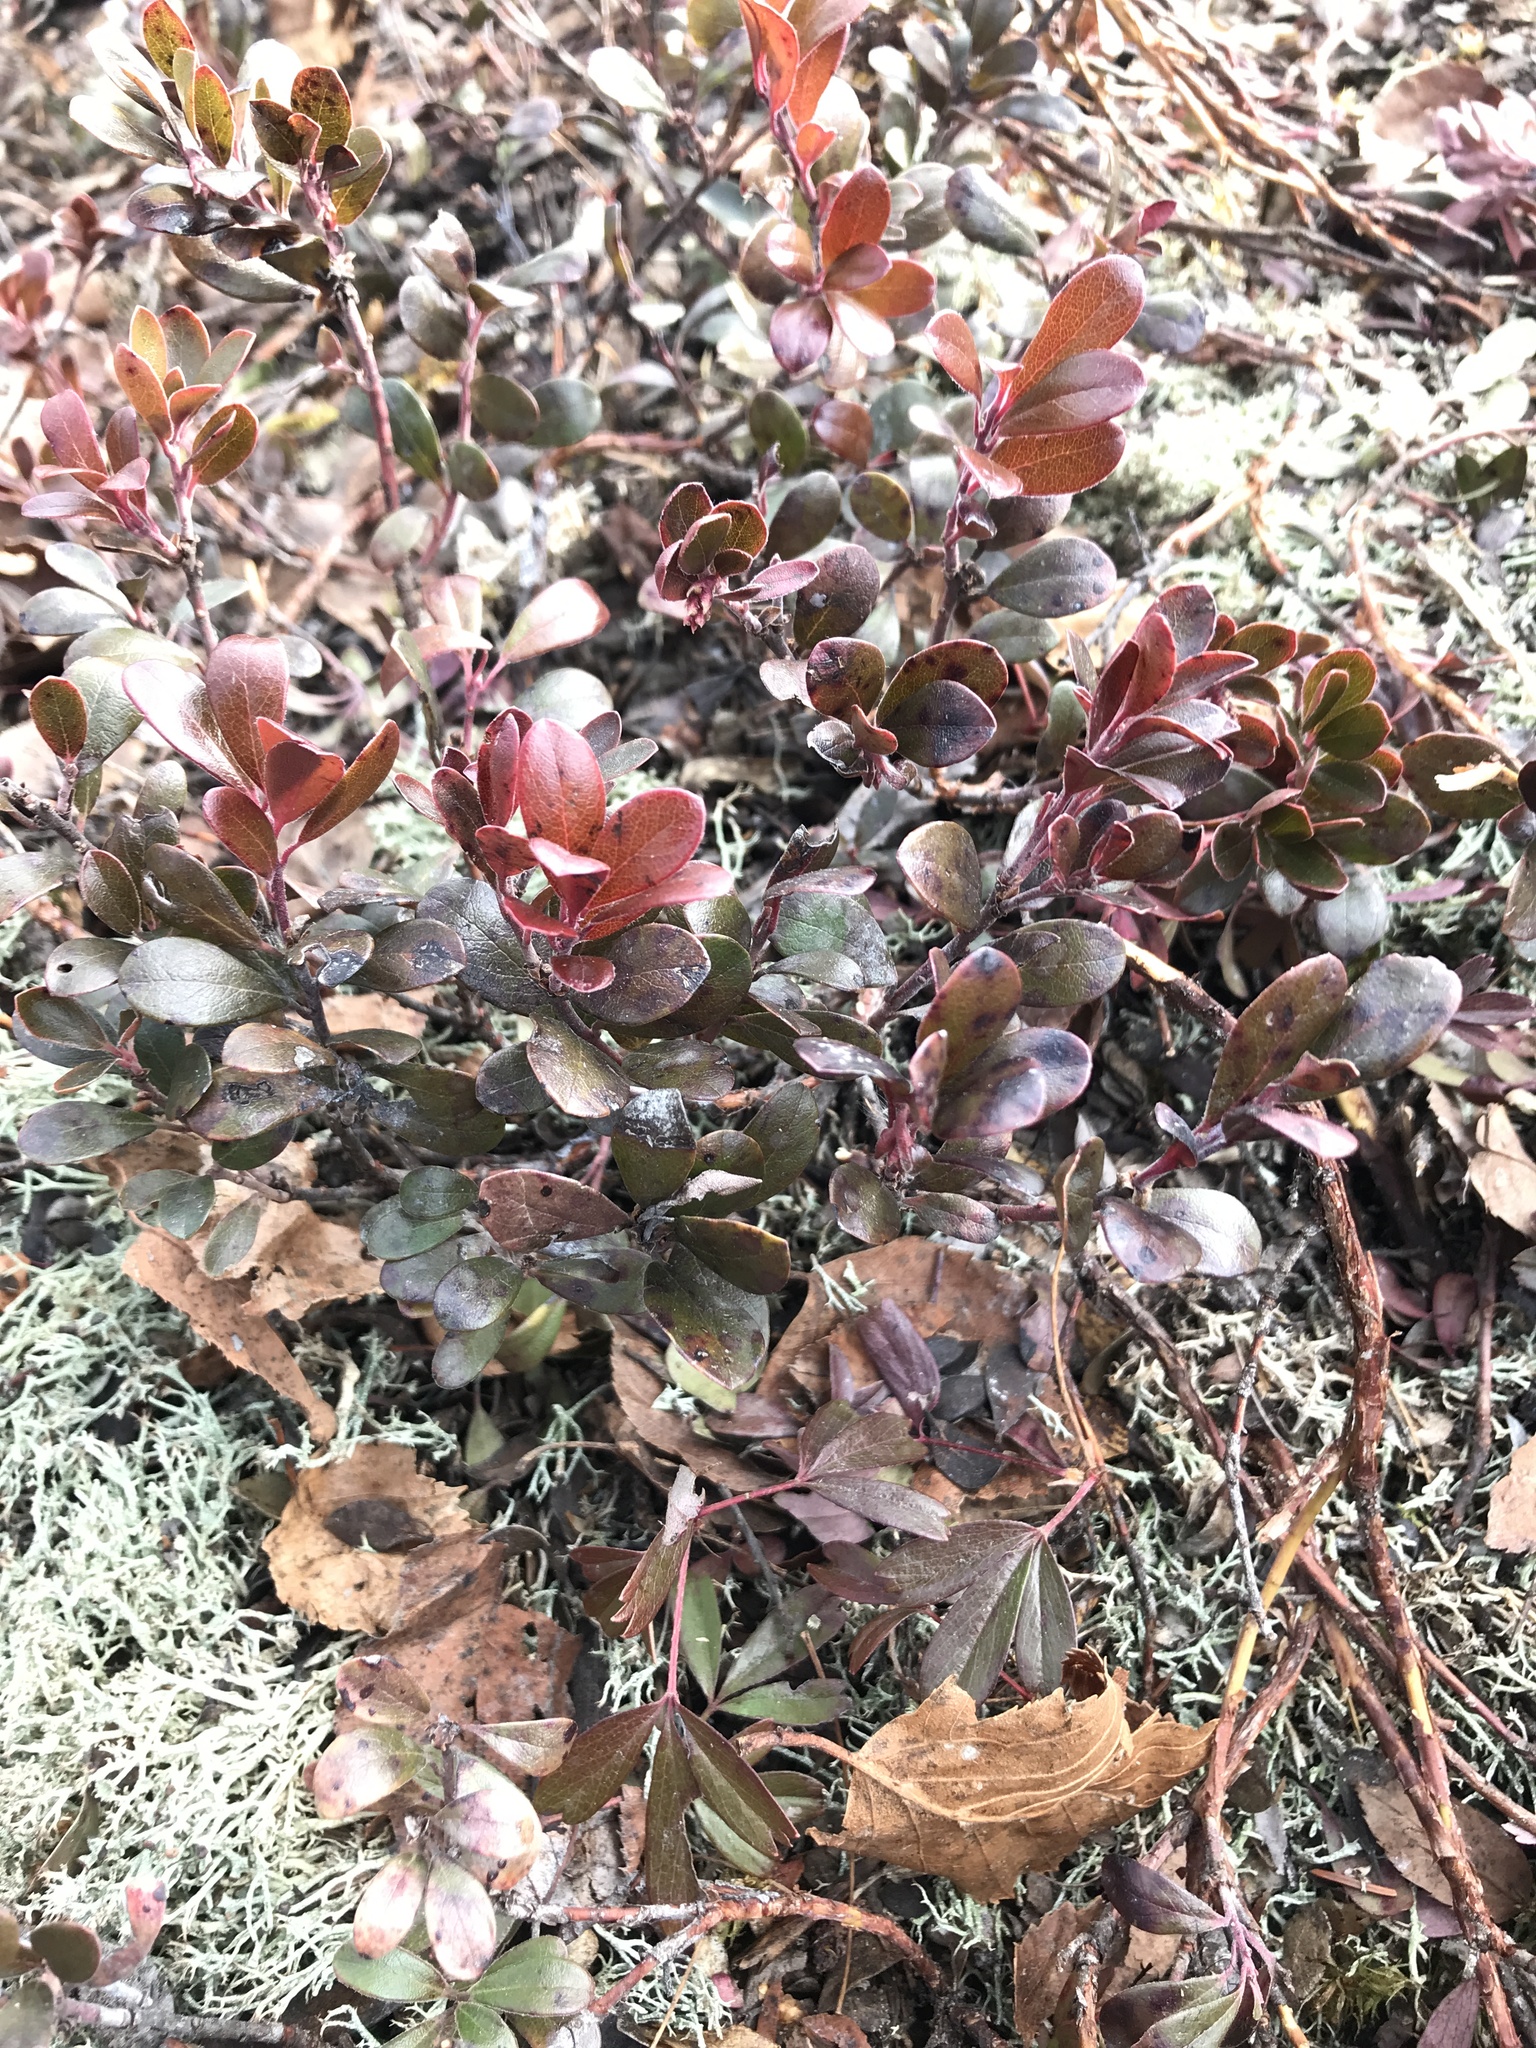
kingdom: Plantae
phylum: Tracheophyta
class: Magnoliopsida
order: Ericales
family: Ericaceae
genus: Arctostaphylos
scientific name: Arctostaphylos uva-ursi
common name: Bearberry
